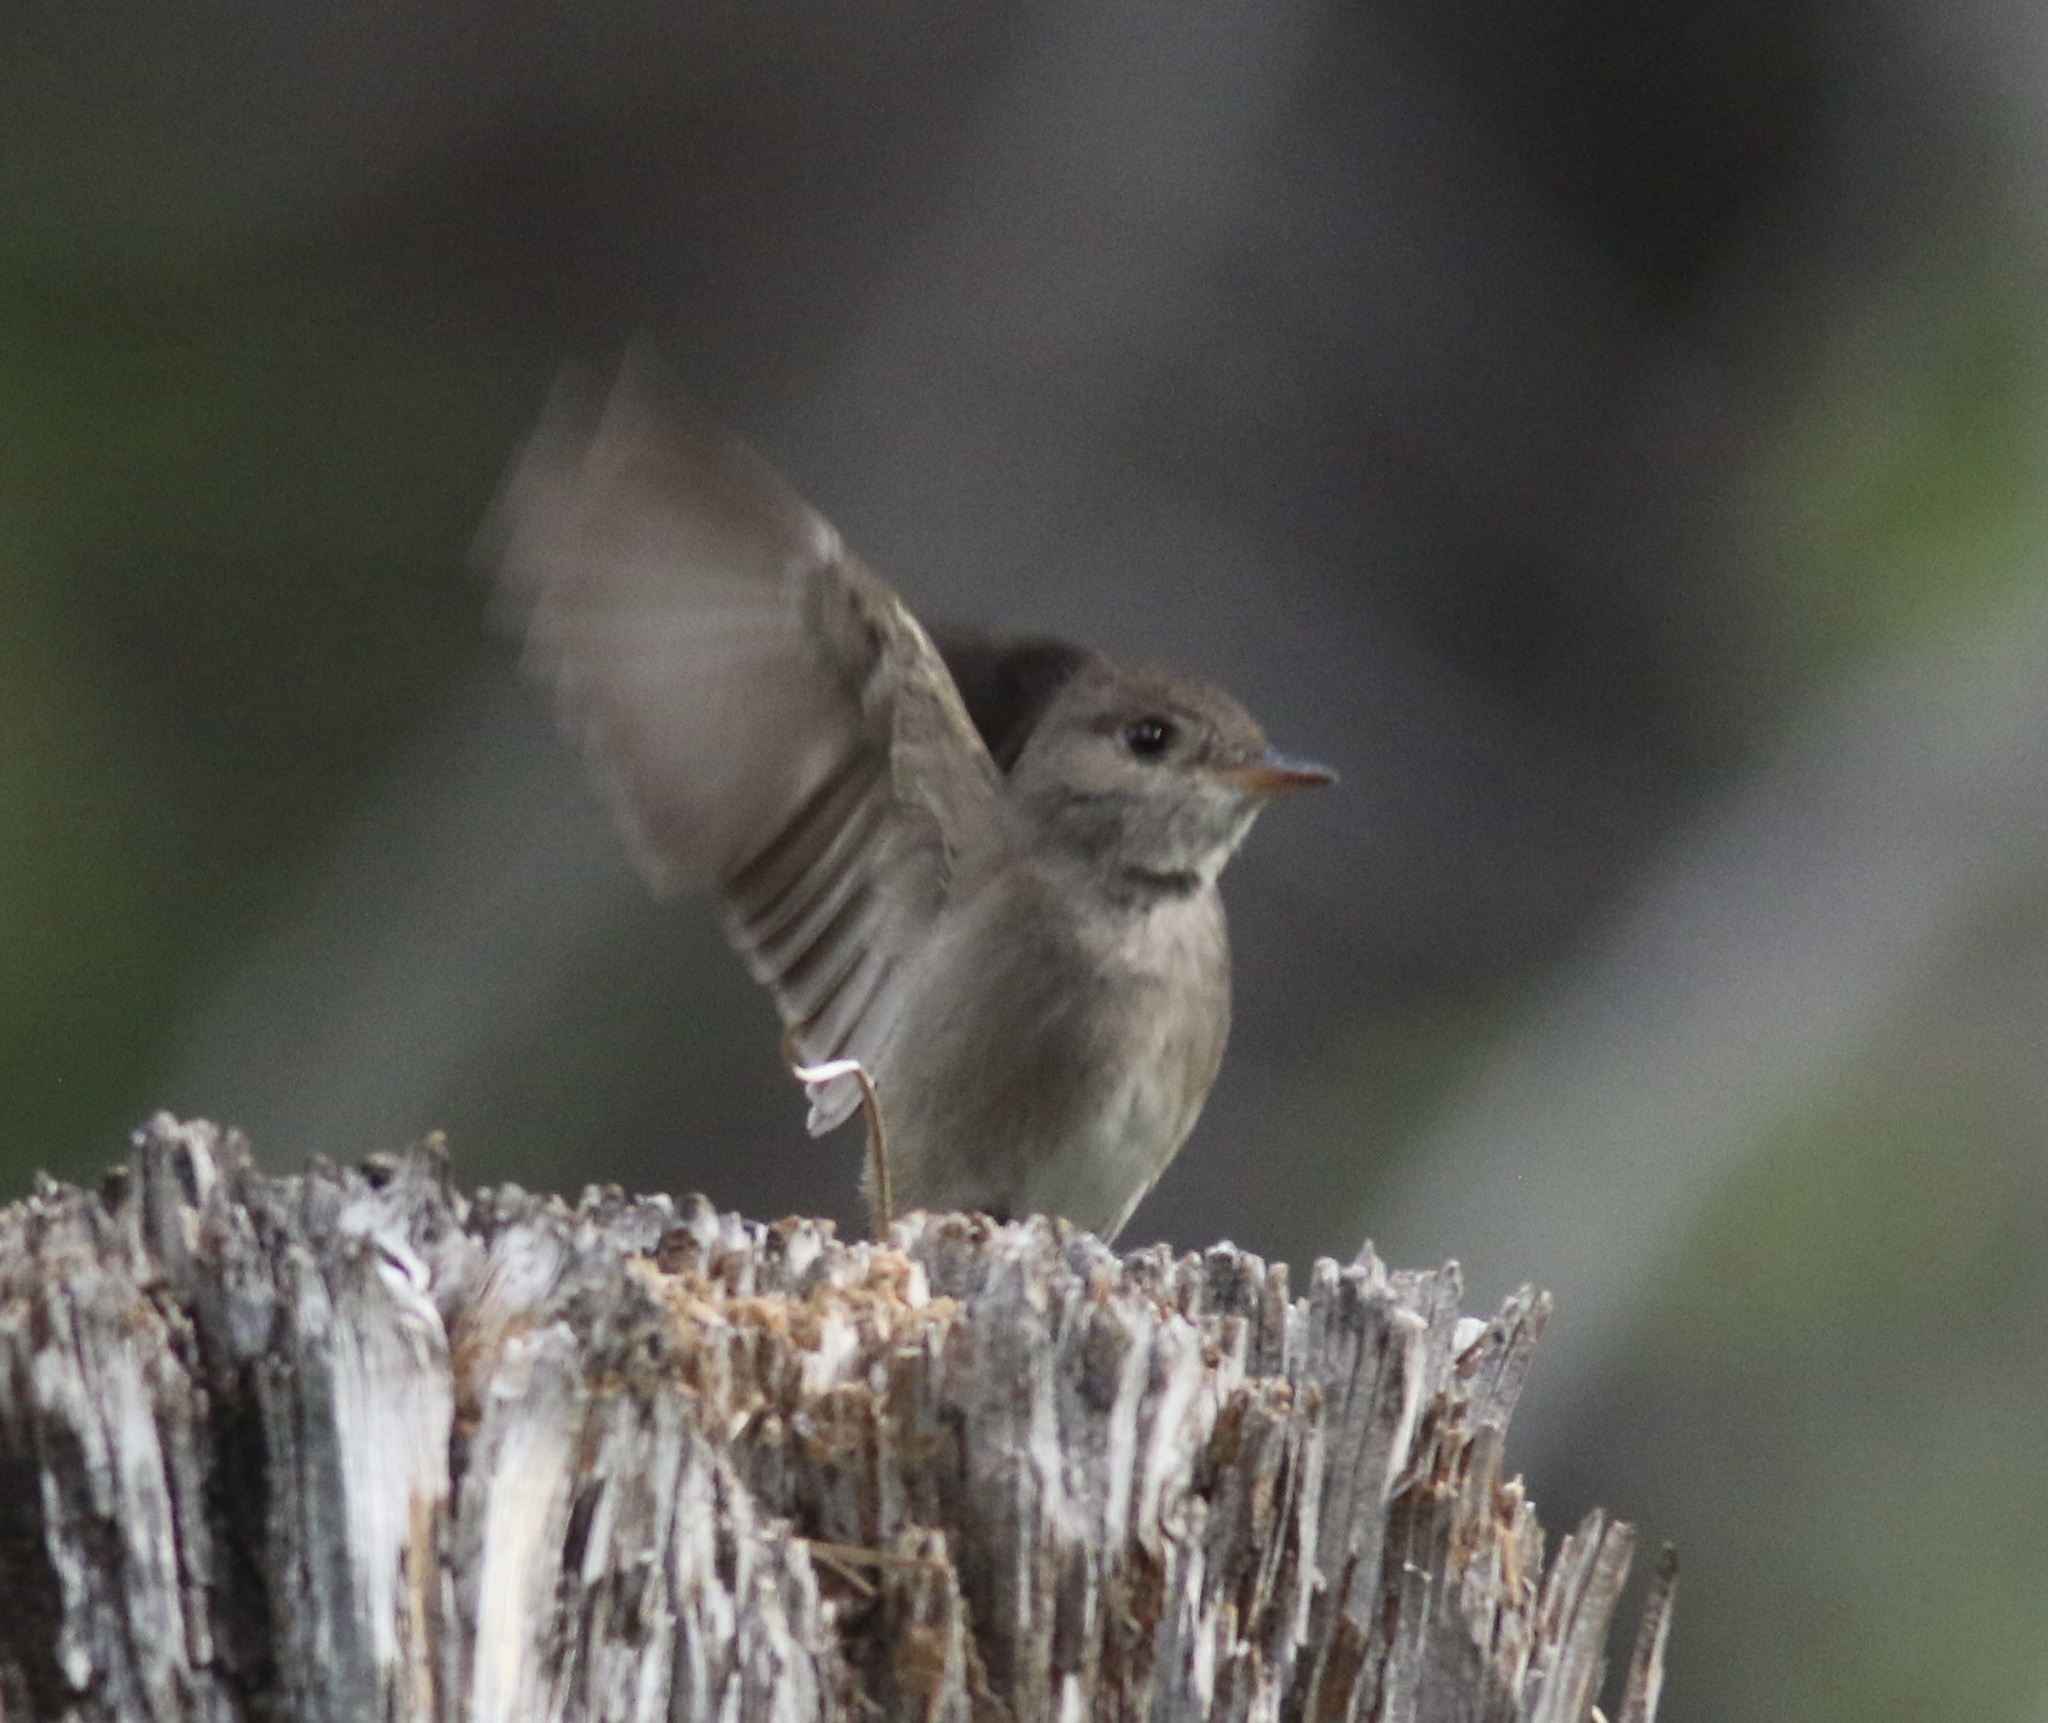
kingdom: Animalia
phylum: Chordata
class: Aves
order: Passeriformes
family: Tyrannidae
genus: Contopus
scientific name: Contopus sordidulus
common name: Western wood-pewee
